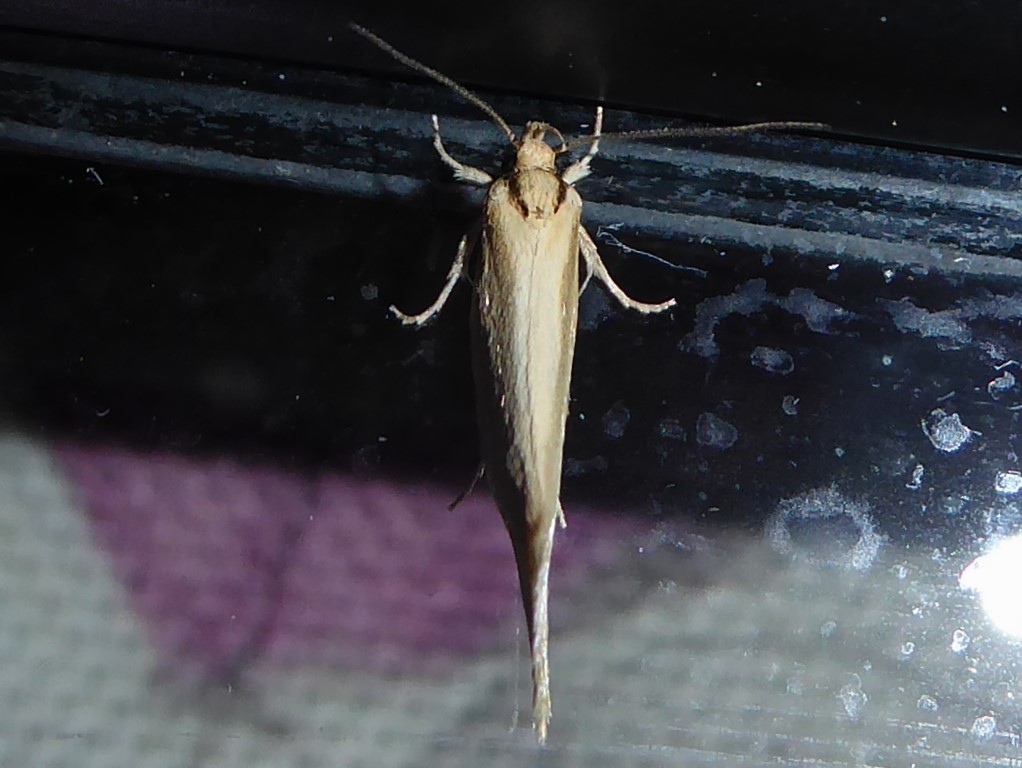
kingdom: Animalia
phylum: Arthropoda
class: Insecta
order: Lepidoptera
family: Oecophoridae
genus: Tingena
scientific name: Tingena chloradelpha
